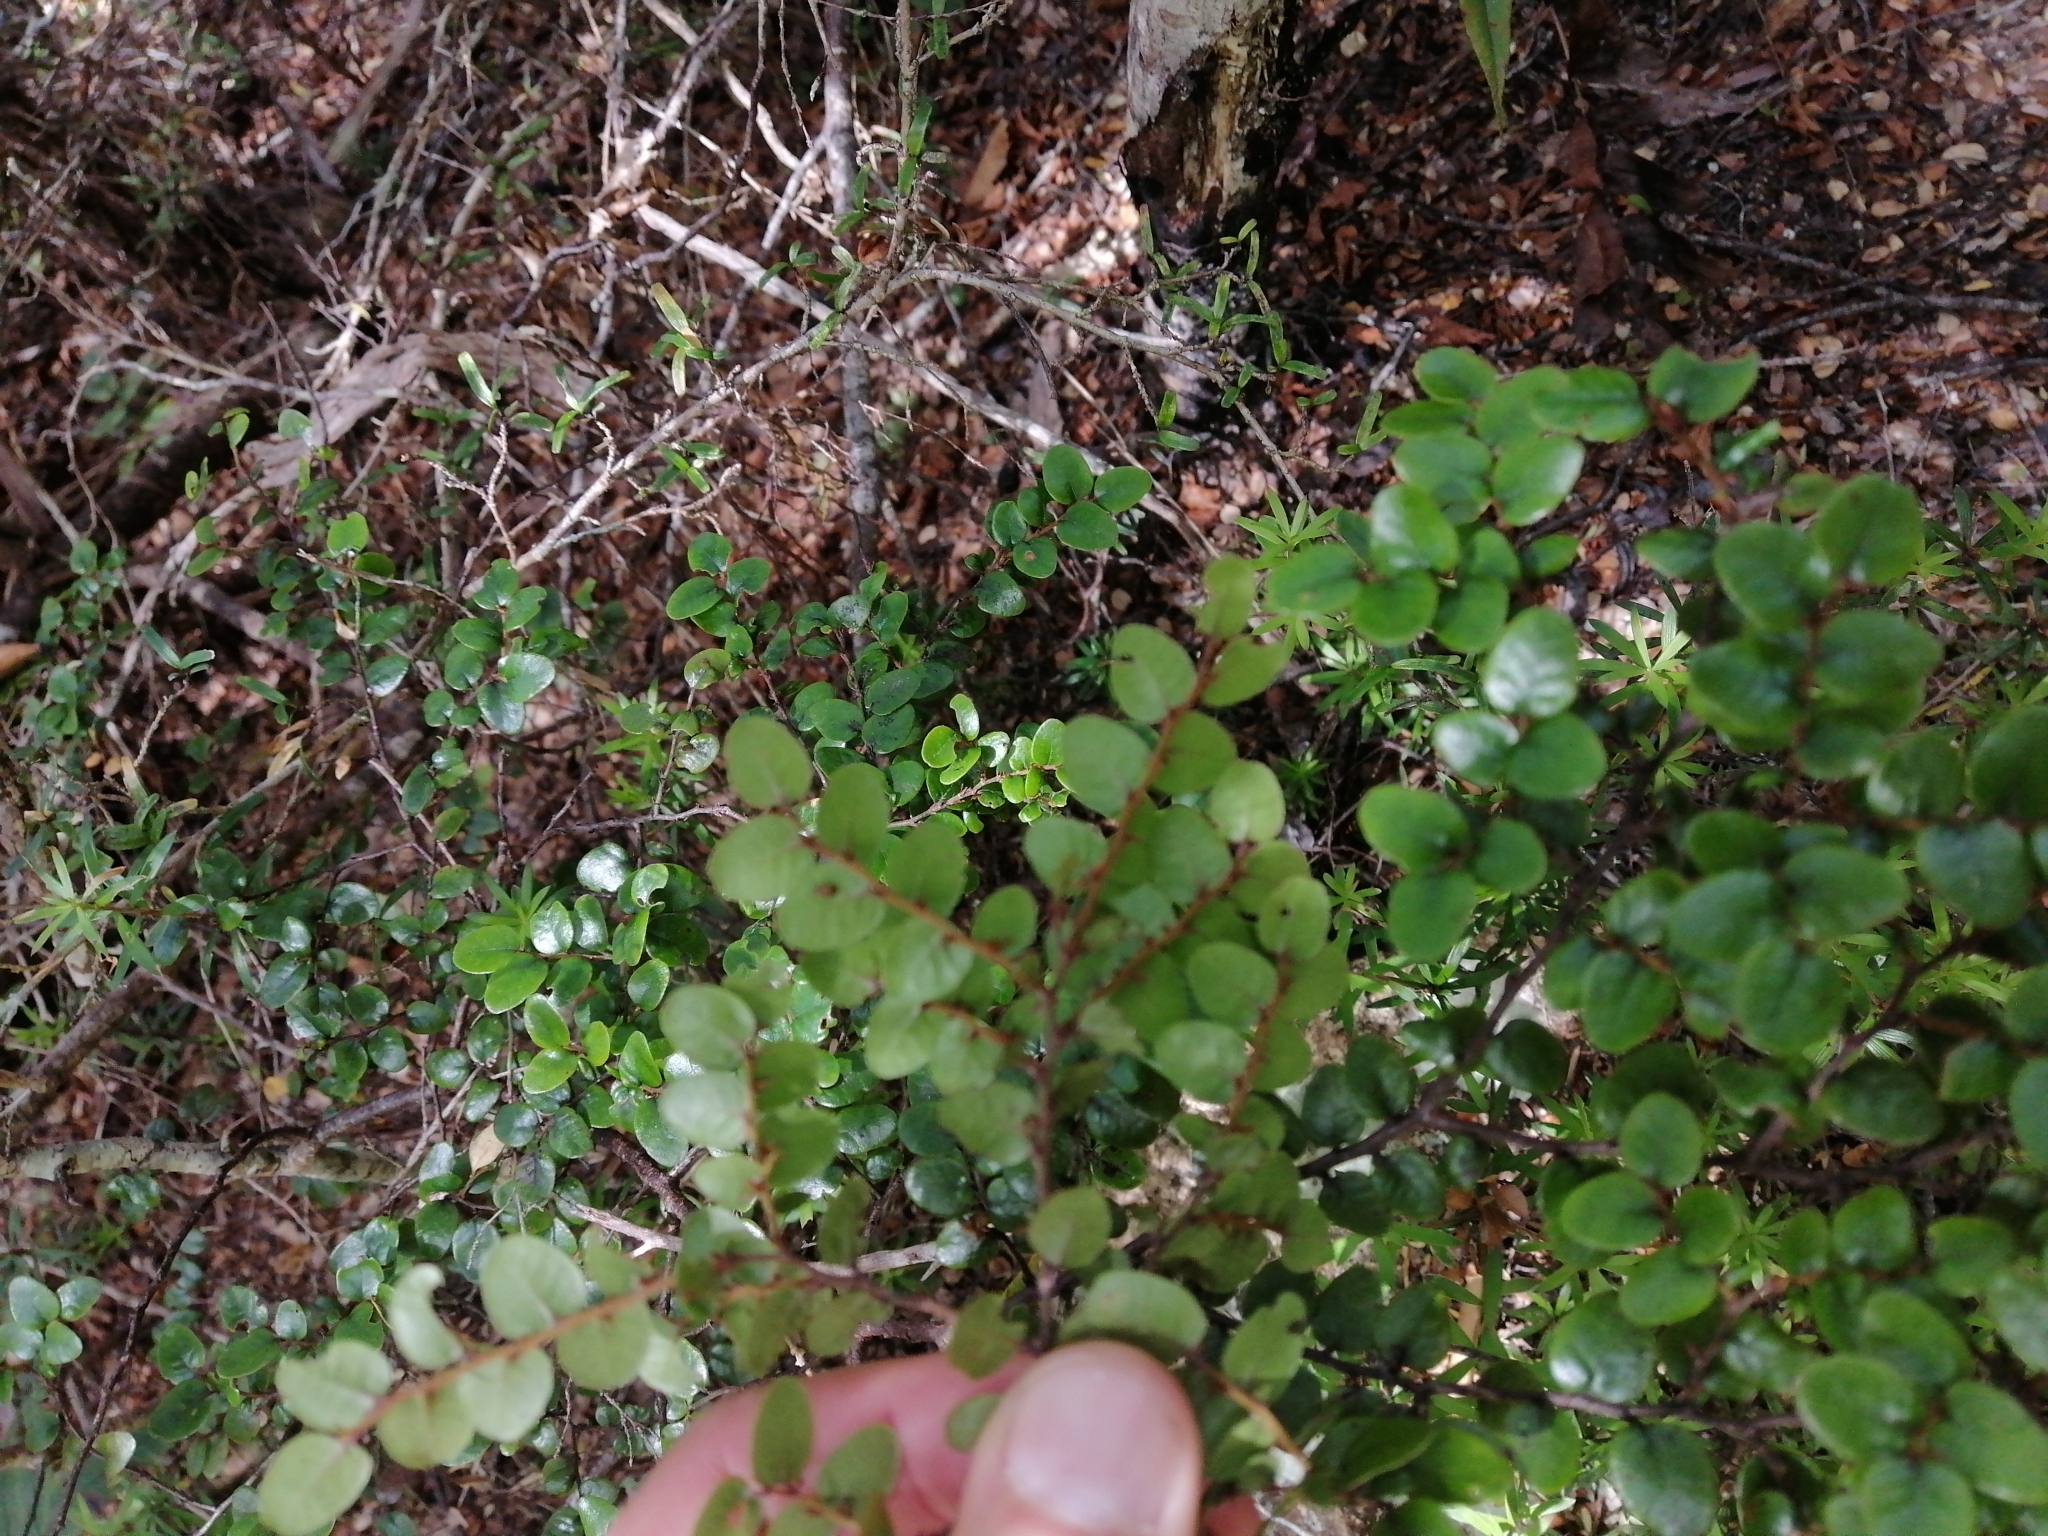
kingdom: Plantae
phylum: Tracheophyta
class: Magnoliopsida
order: Fagales
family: Nothofagaceae
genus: Nothofagus
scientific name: Nothofagus solandri
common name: Black beech
